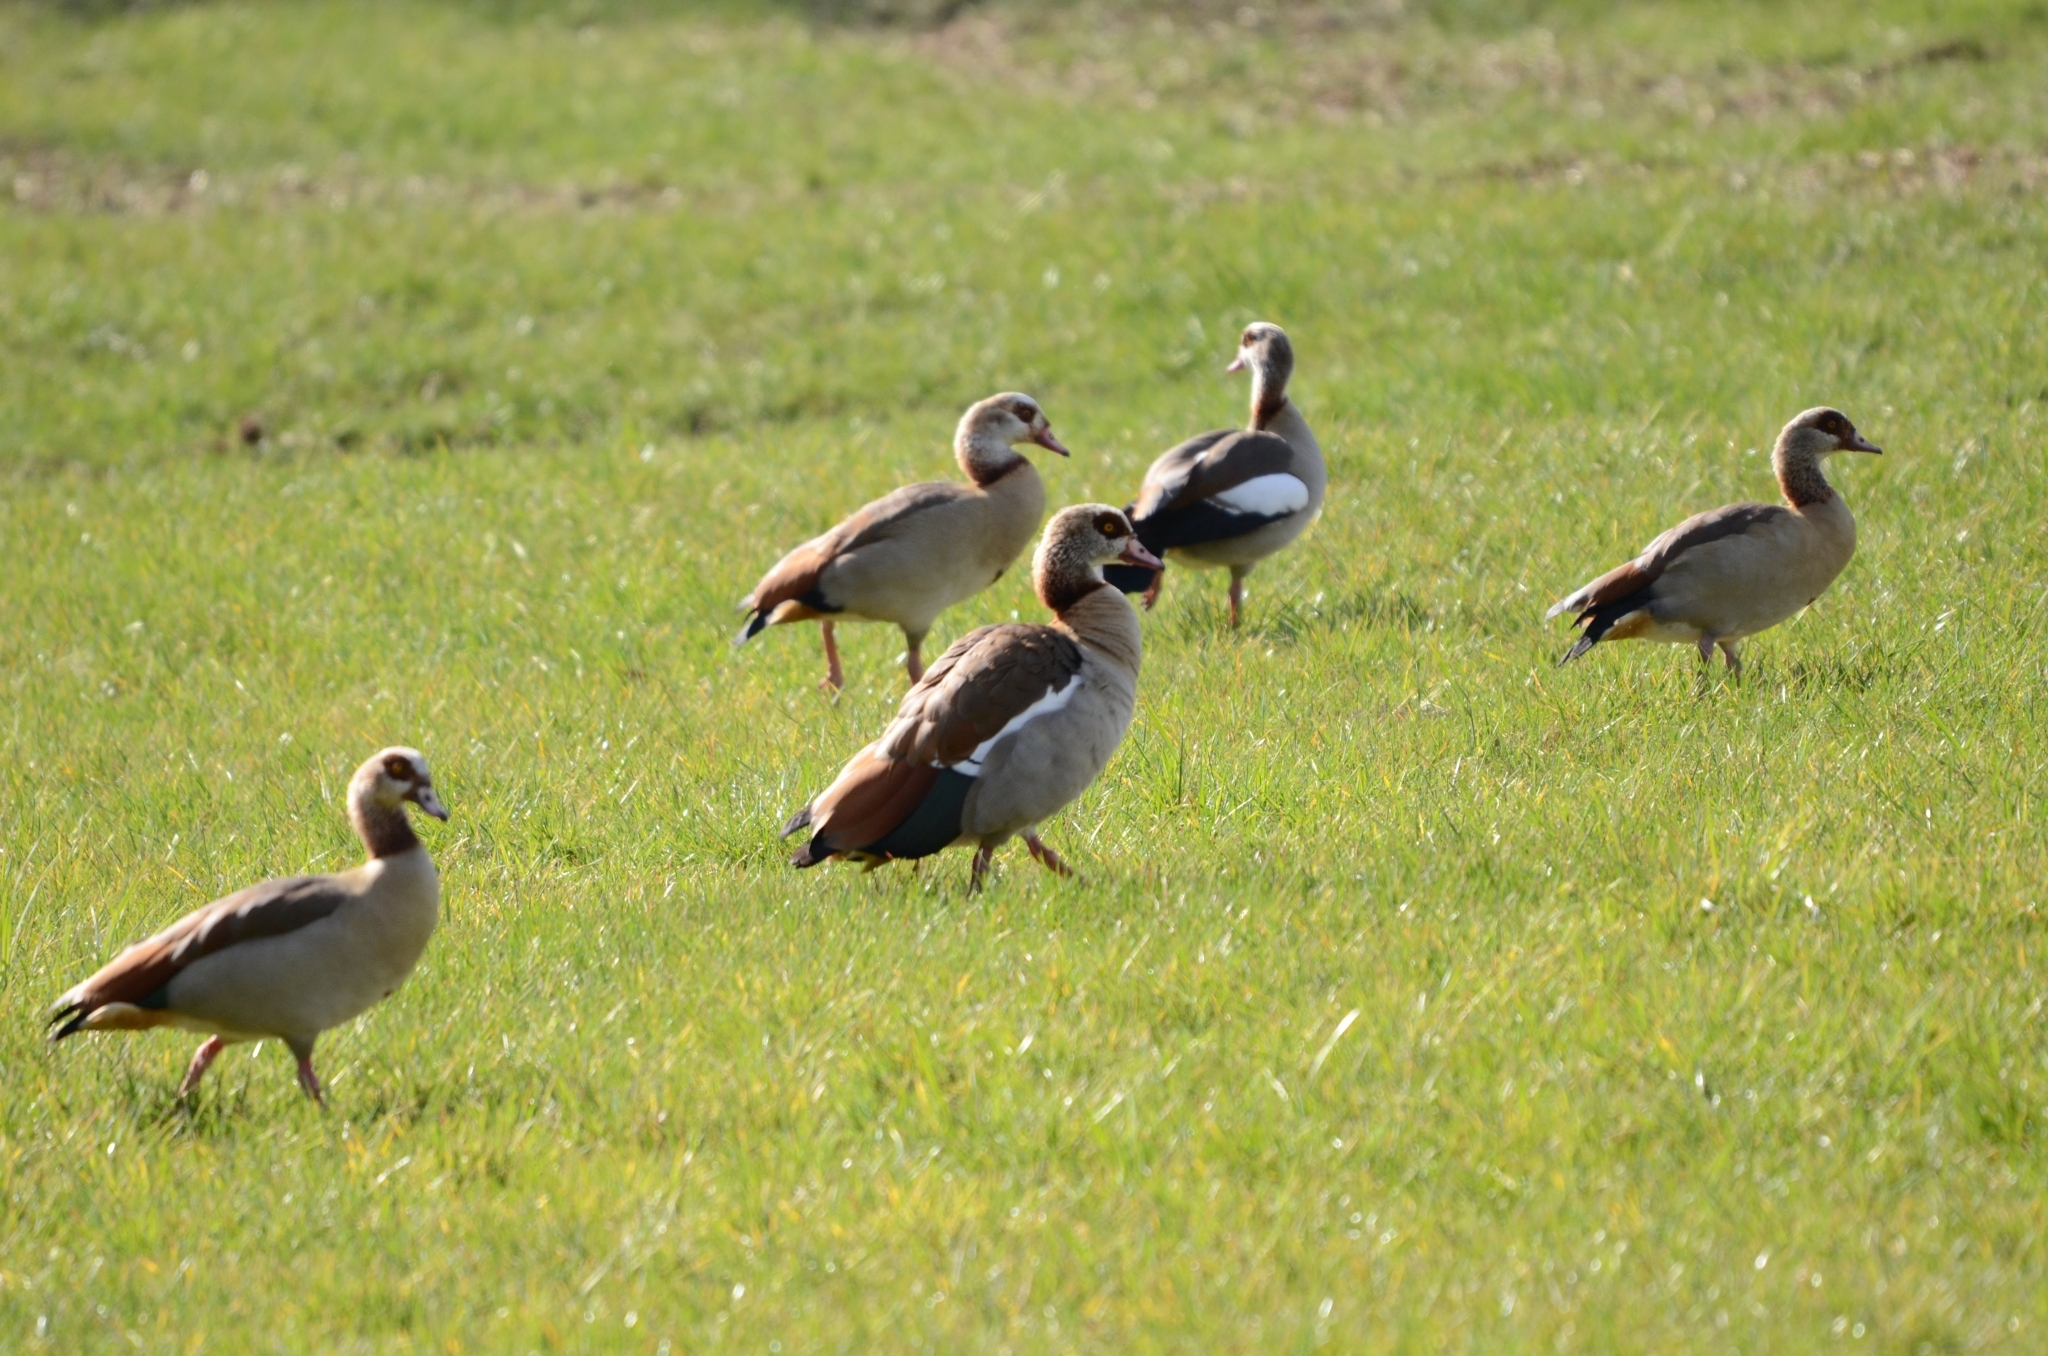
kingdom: Animalia
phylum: Chordata
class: Aves
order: Anseriformes
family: Anatidae
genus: Alopochen
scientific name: Alopochen aegyptiaca
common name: Egyptian goose
